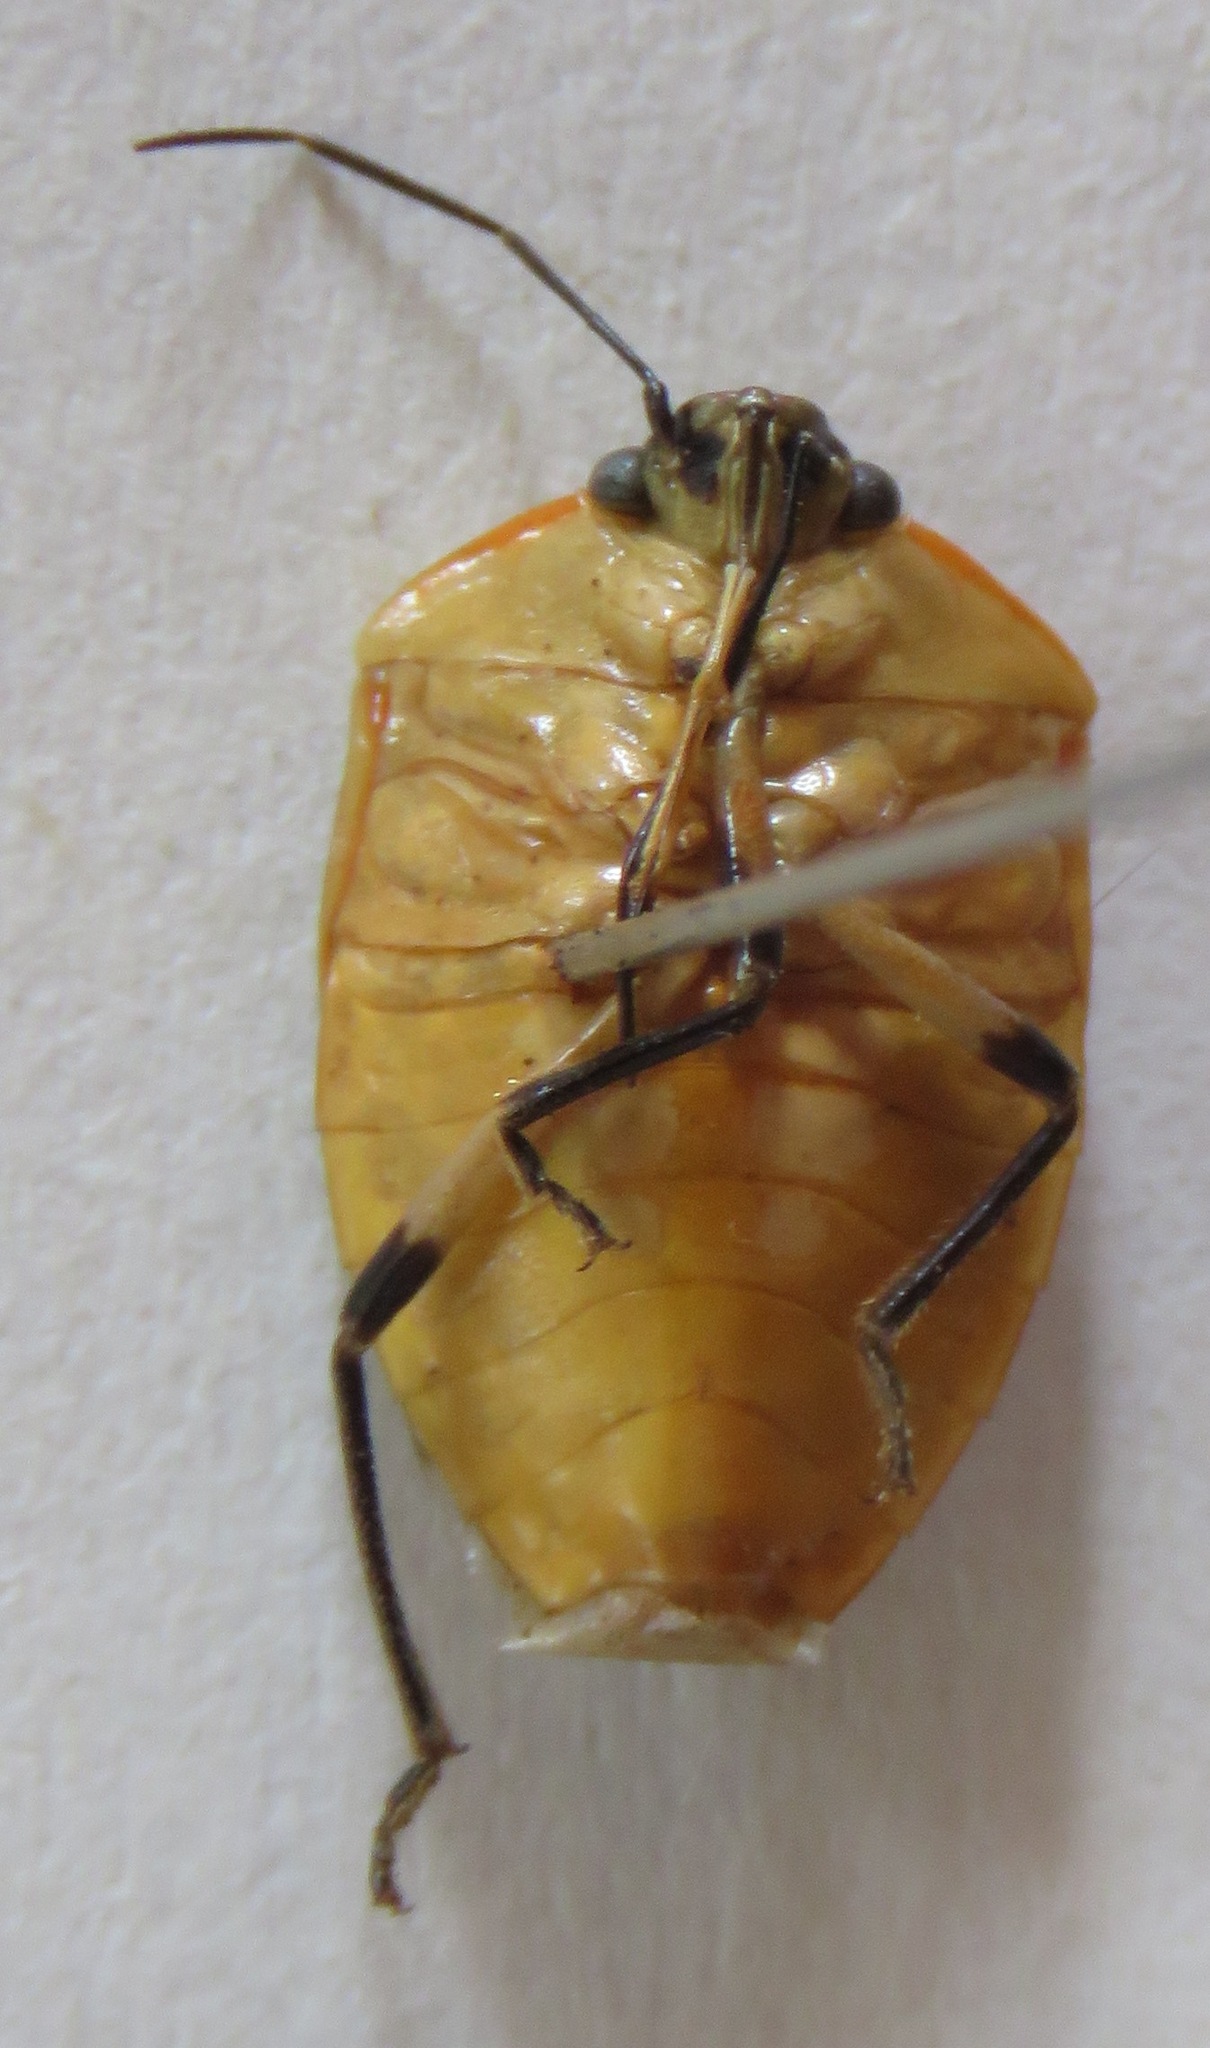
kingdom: Animalia
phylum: Arthropoda
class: Insecta
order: Hemiptera
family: Pentatomidae
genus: Roferta
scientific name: Roferta marginalis
